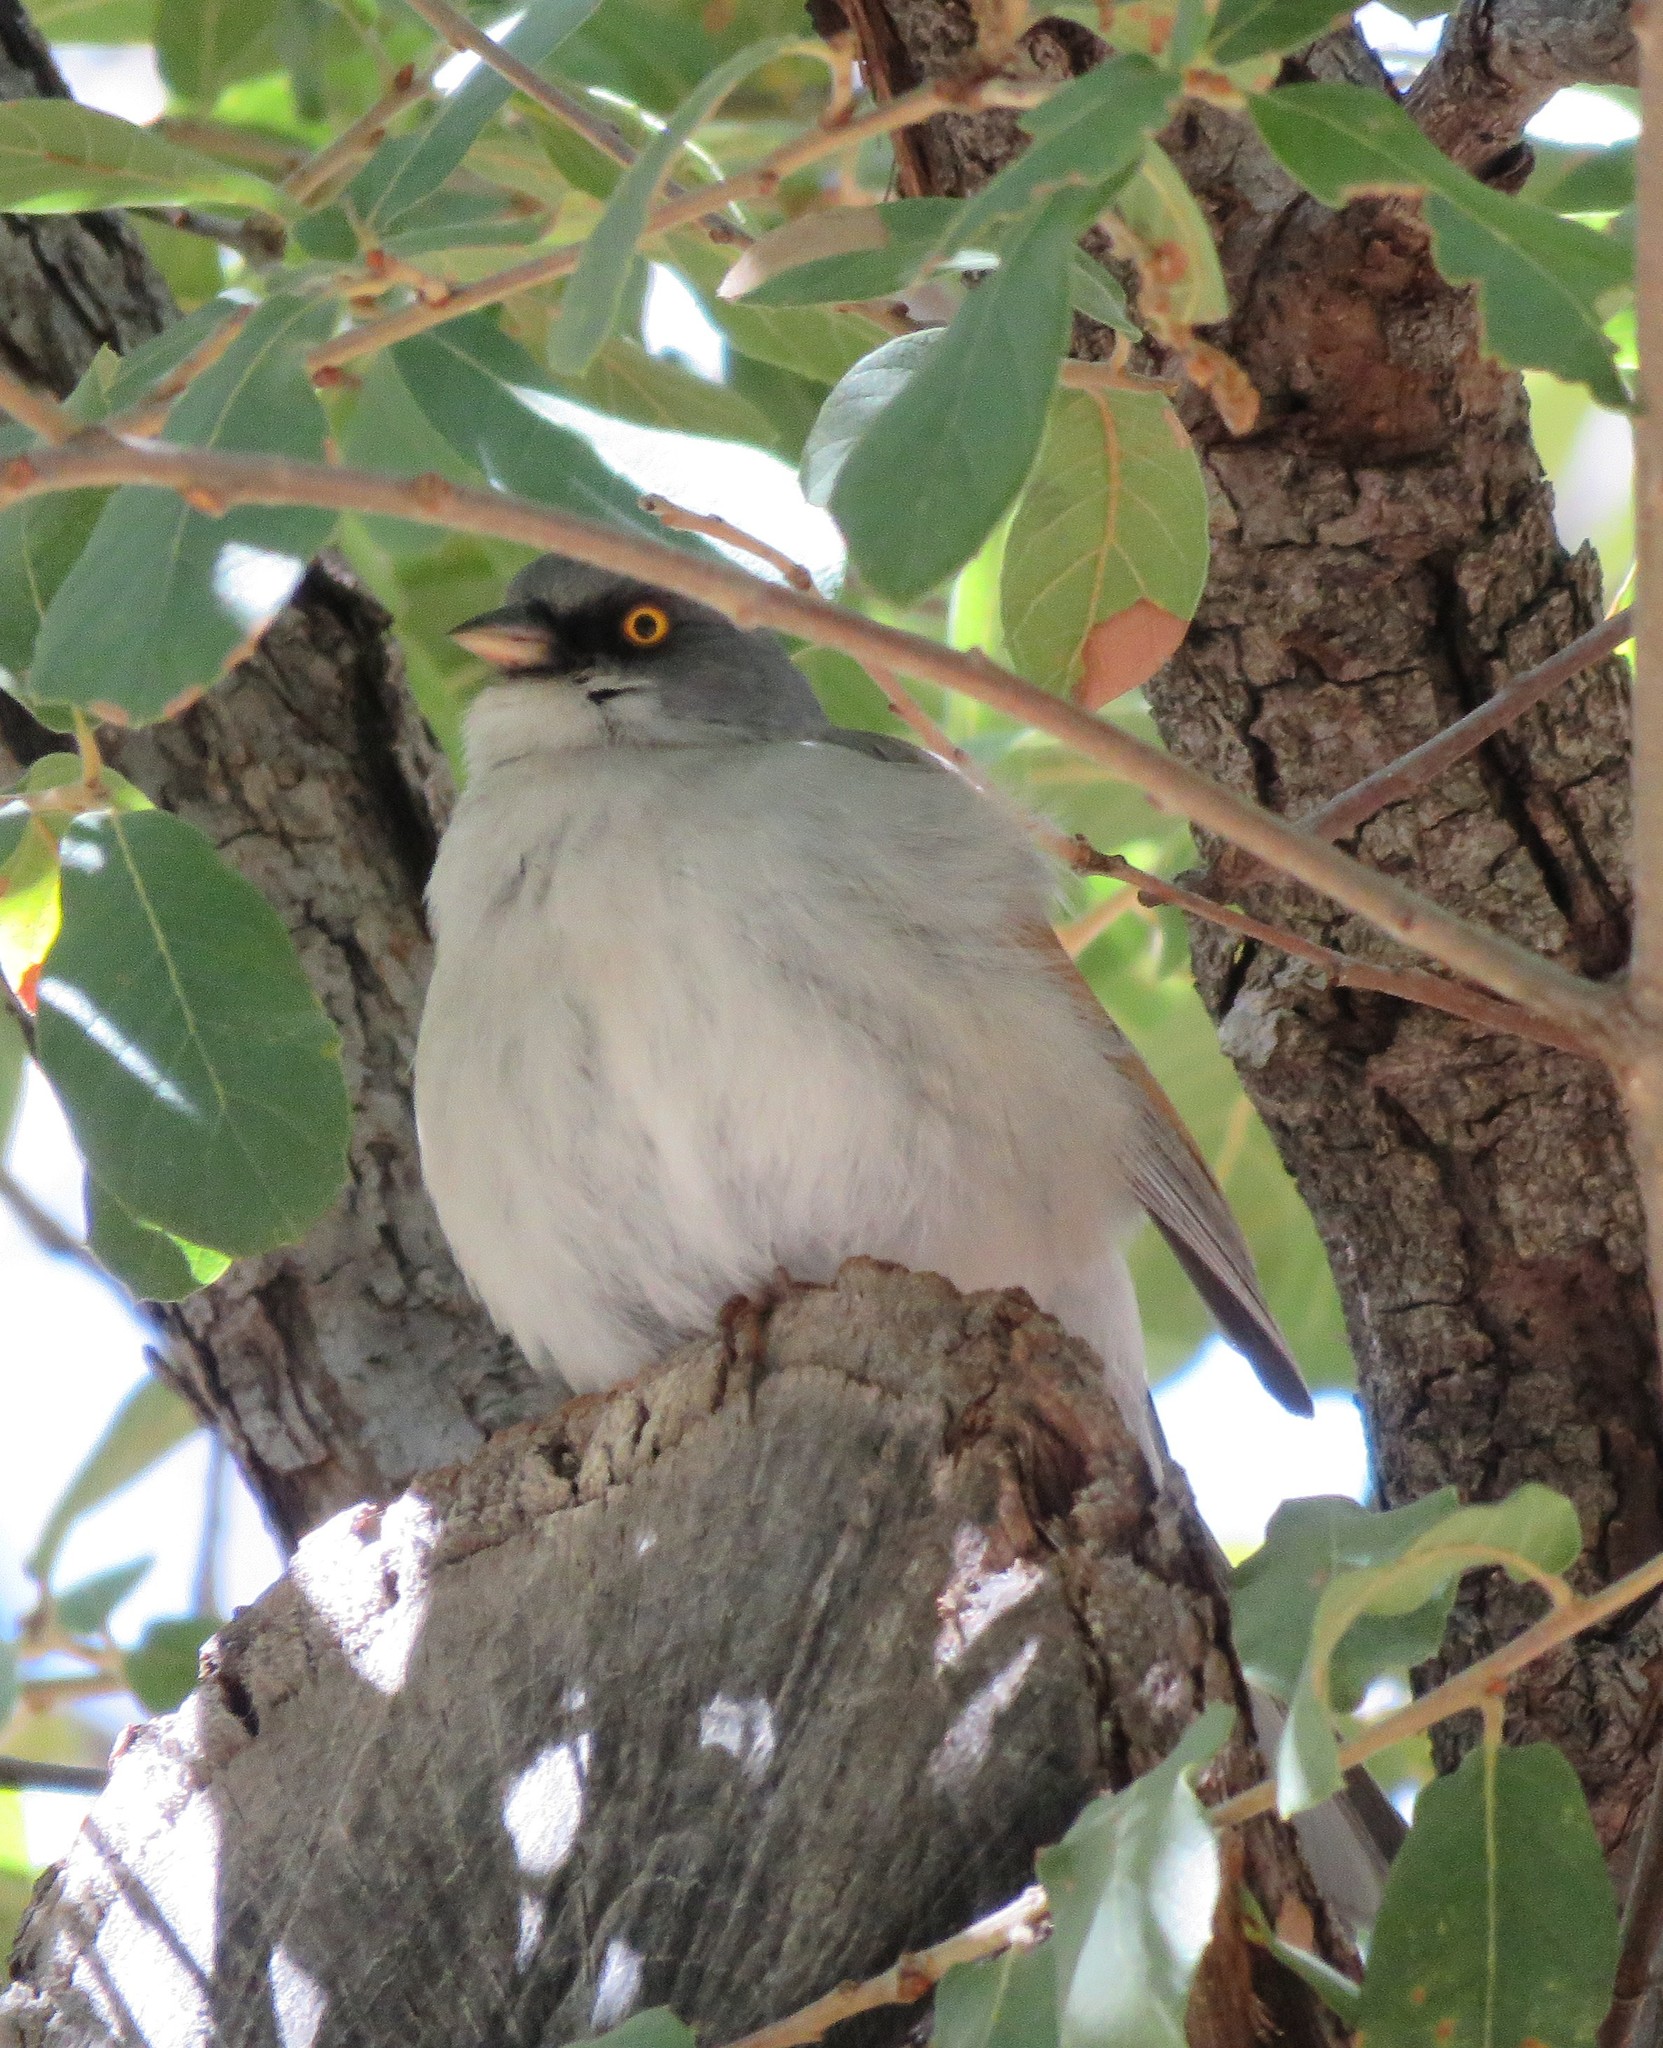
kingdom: Animalia
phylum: Chordata
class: Aves
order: Passeriformes
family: Passerellidae
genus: Junco
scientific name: Junco phaeonotus
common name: Yellow-eyed junco
